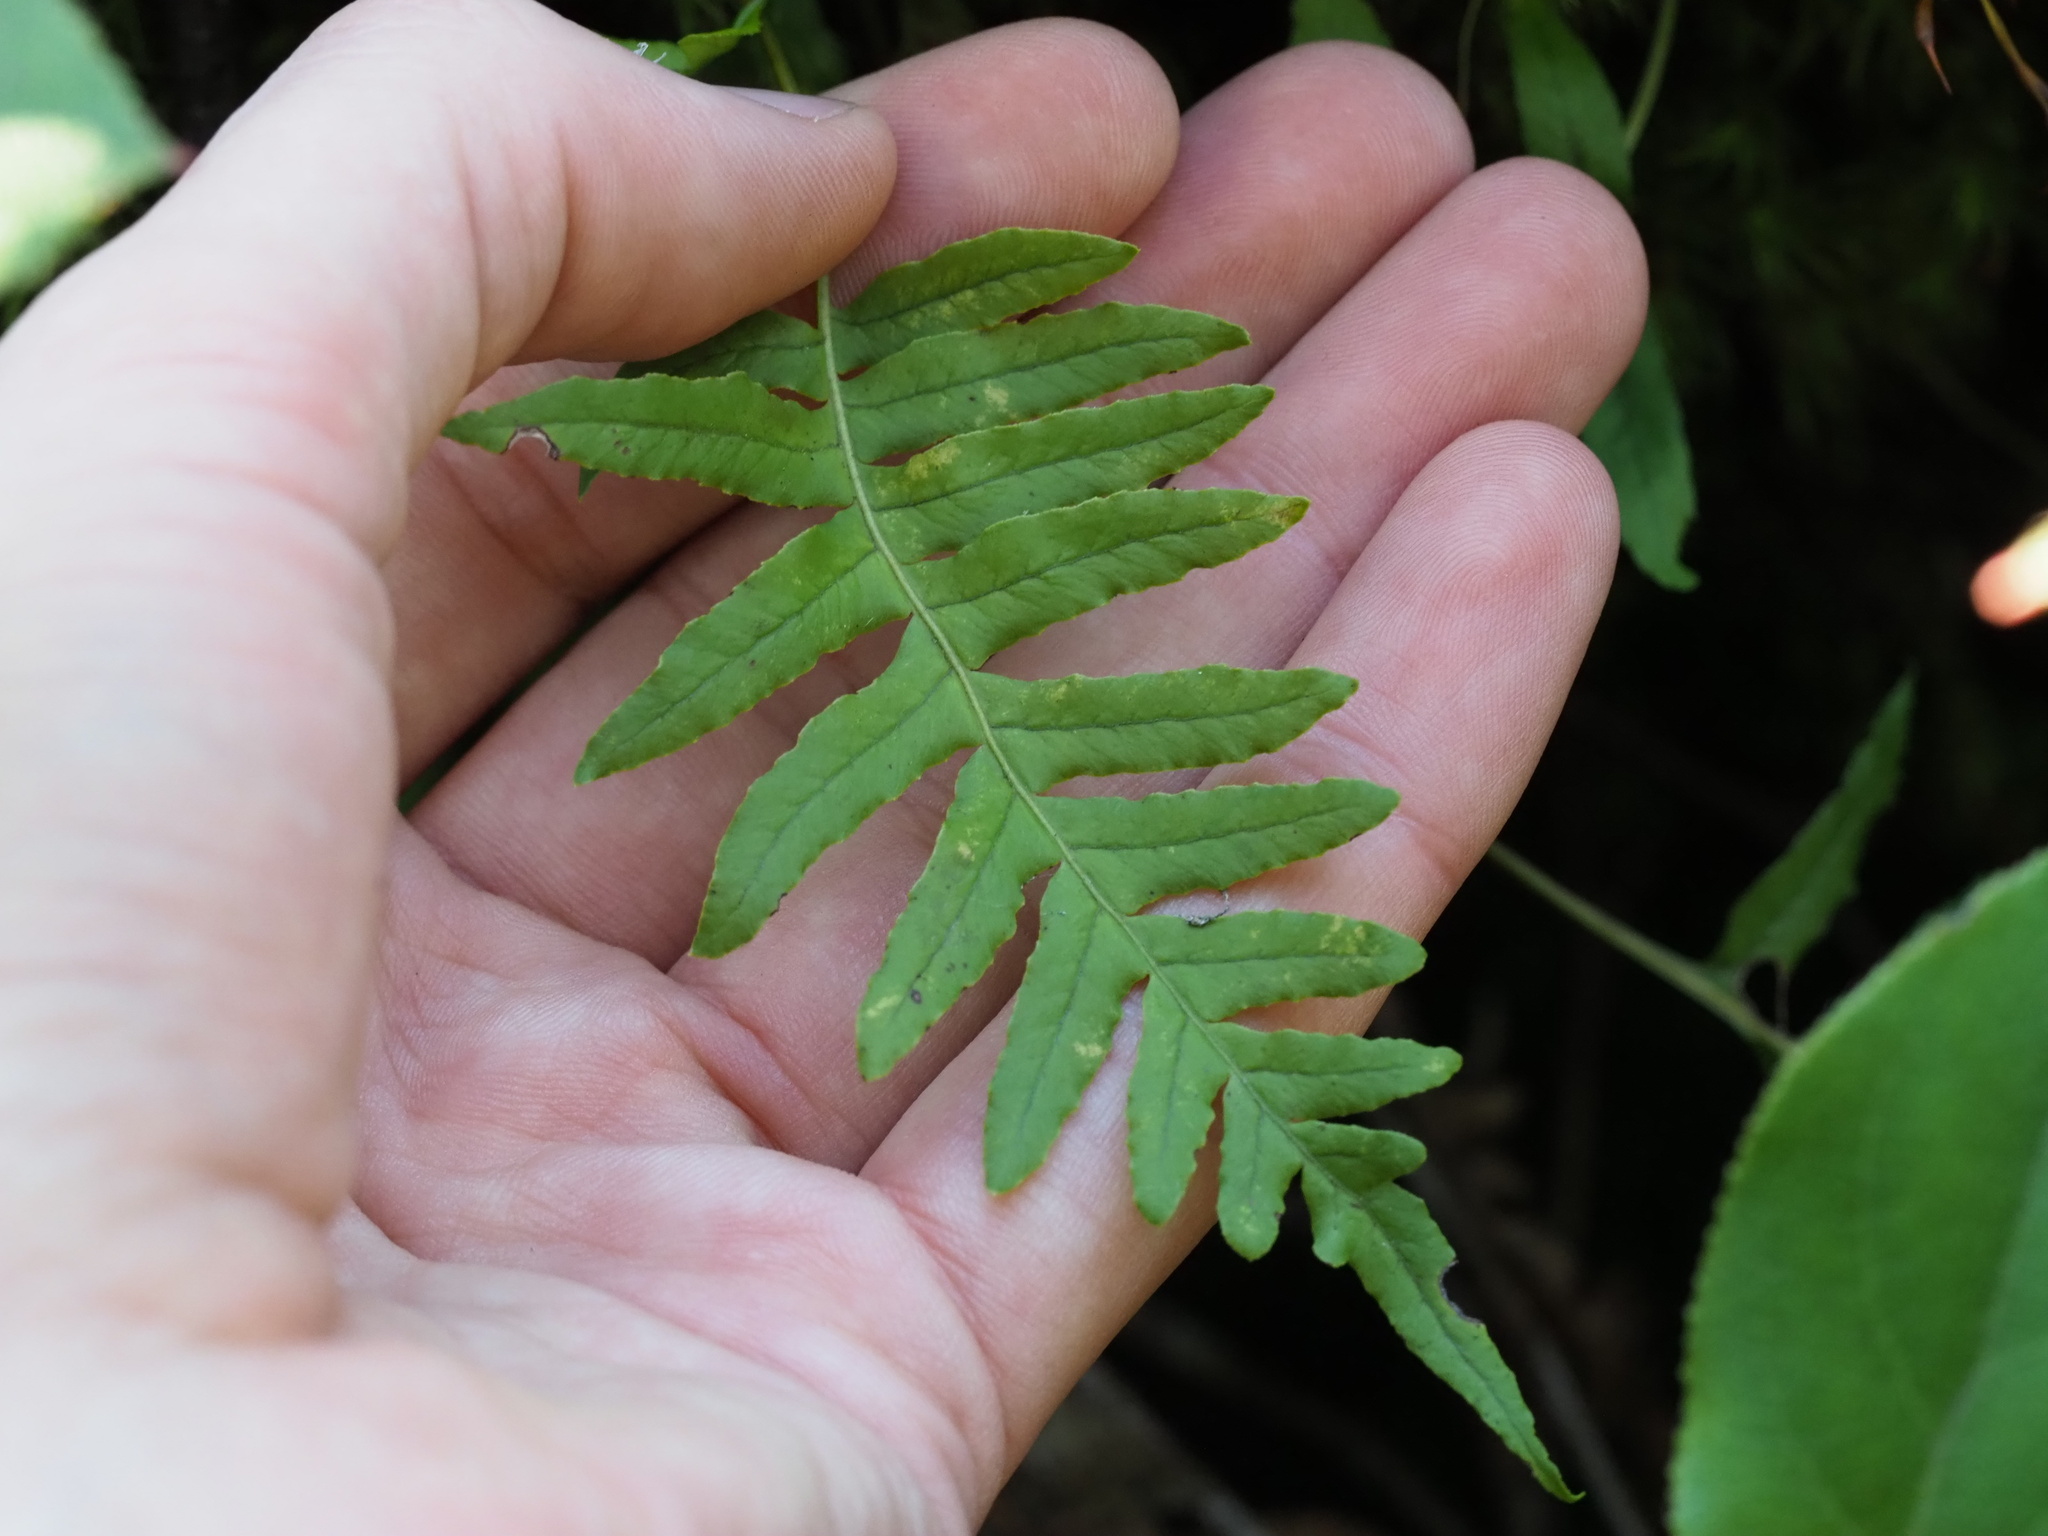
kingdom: Plantae
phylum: Tracheophyta
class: Polypodiopsida
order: Polypodiales
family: Polypodiaceae
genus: Polypodium
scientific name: Polypodium glycyrrhiza
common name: Licorice fern
